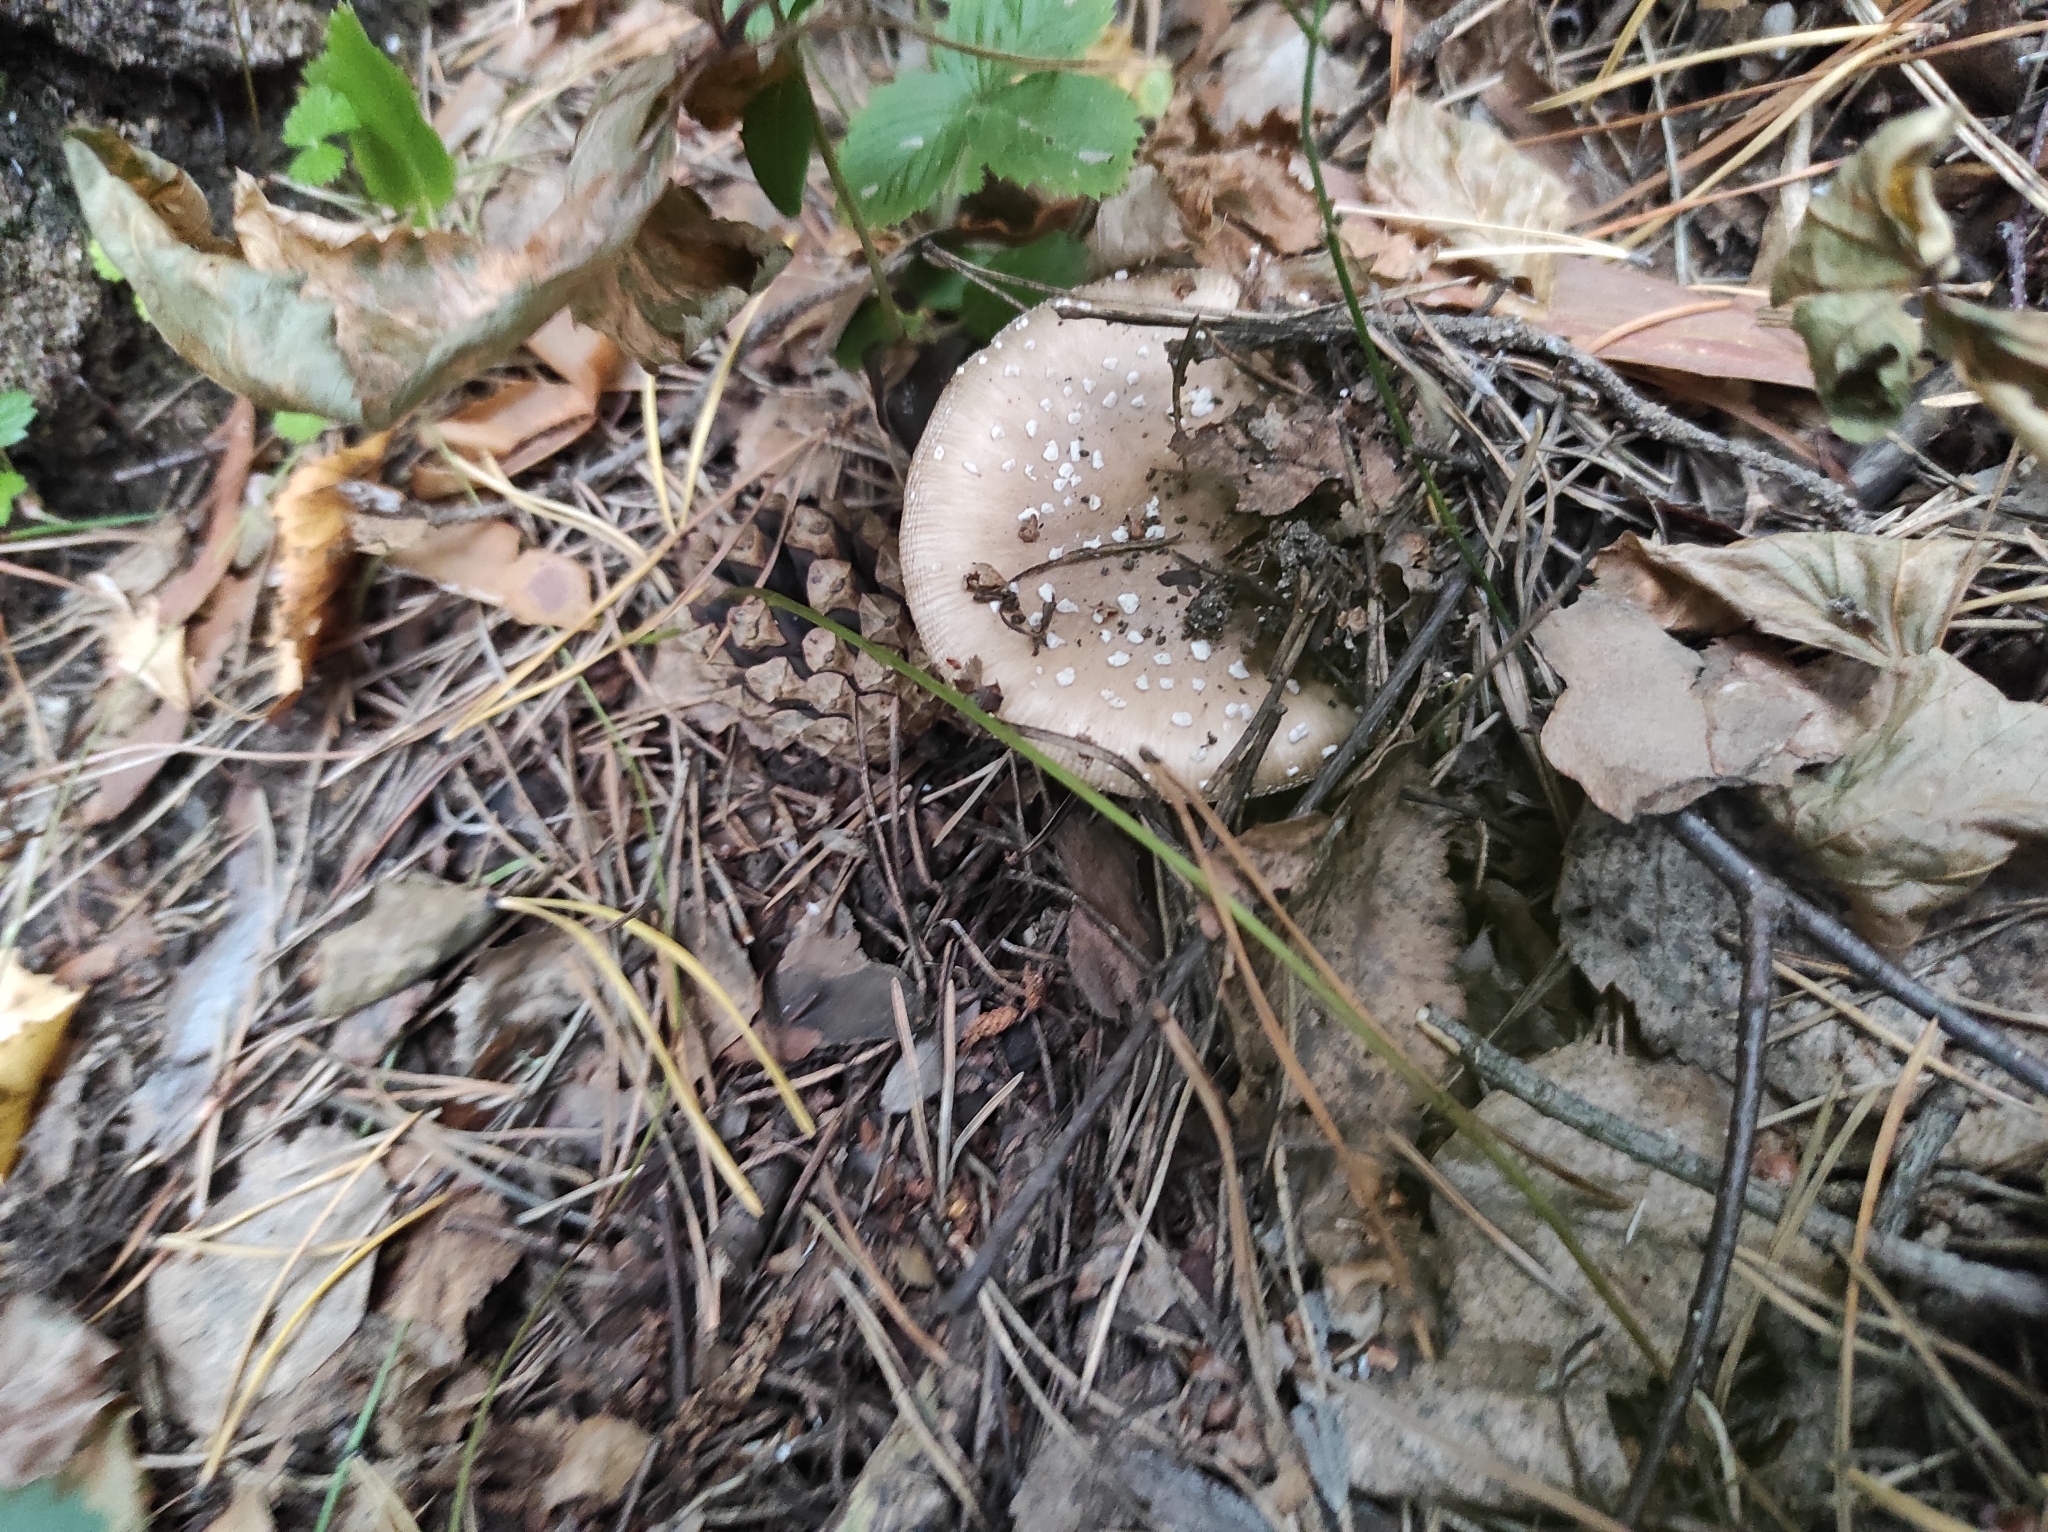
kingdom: Fungi
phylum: Basidiomycota
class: Agaricomycetes
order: Agaricales
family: Amanitaceae
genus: Amanita
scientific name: Amanita pantherina
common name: Panthercap
